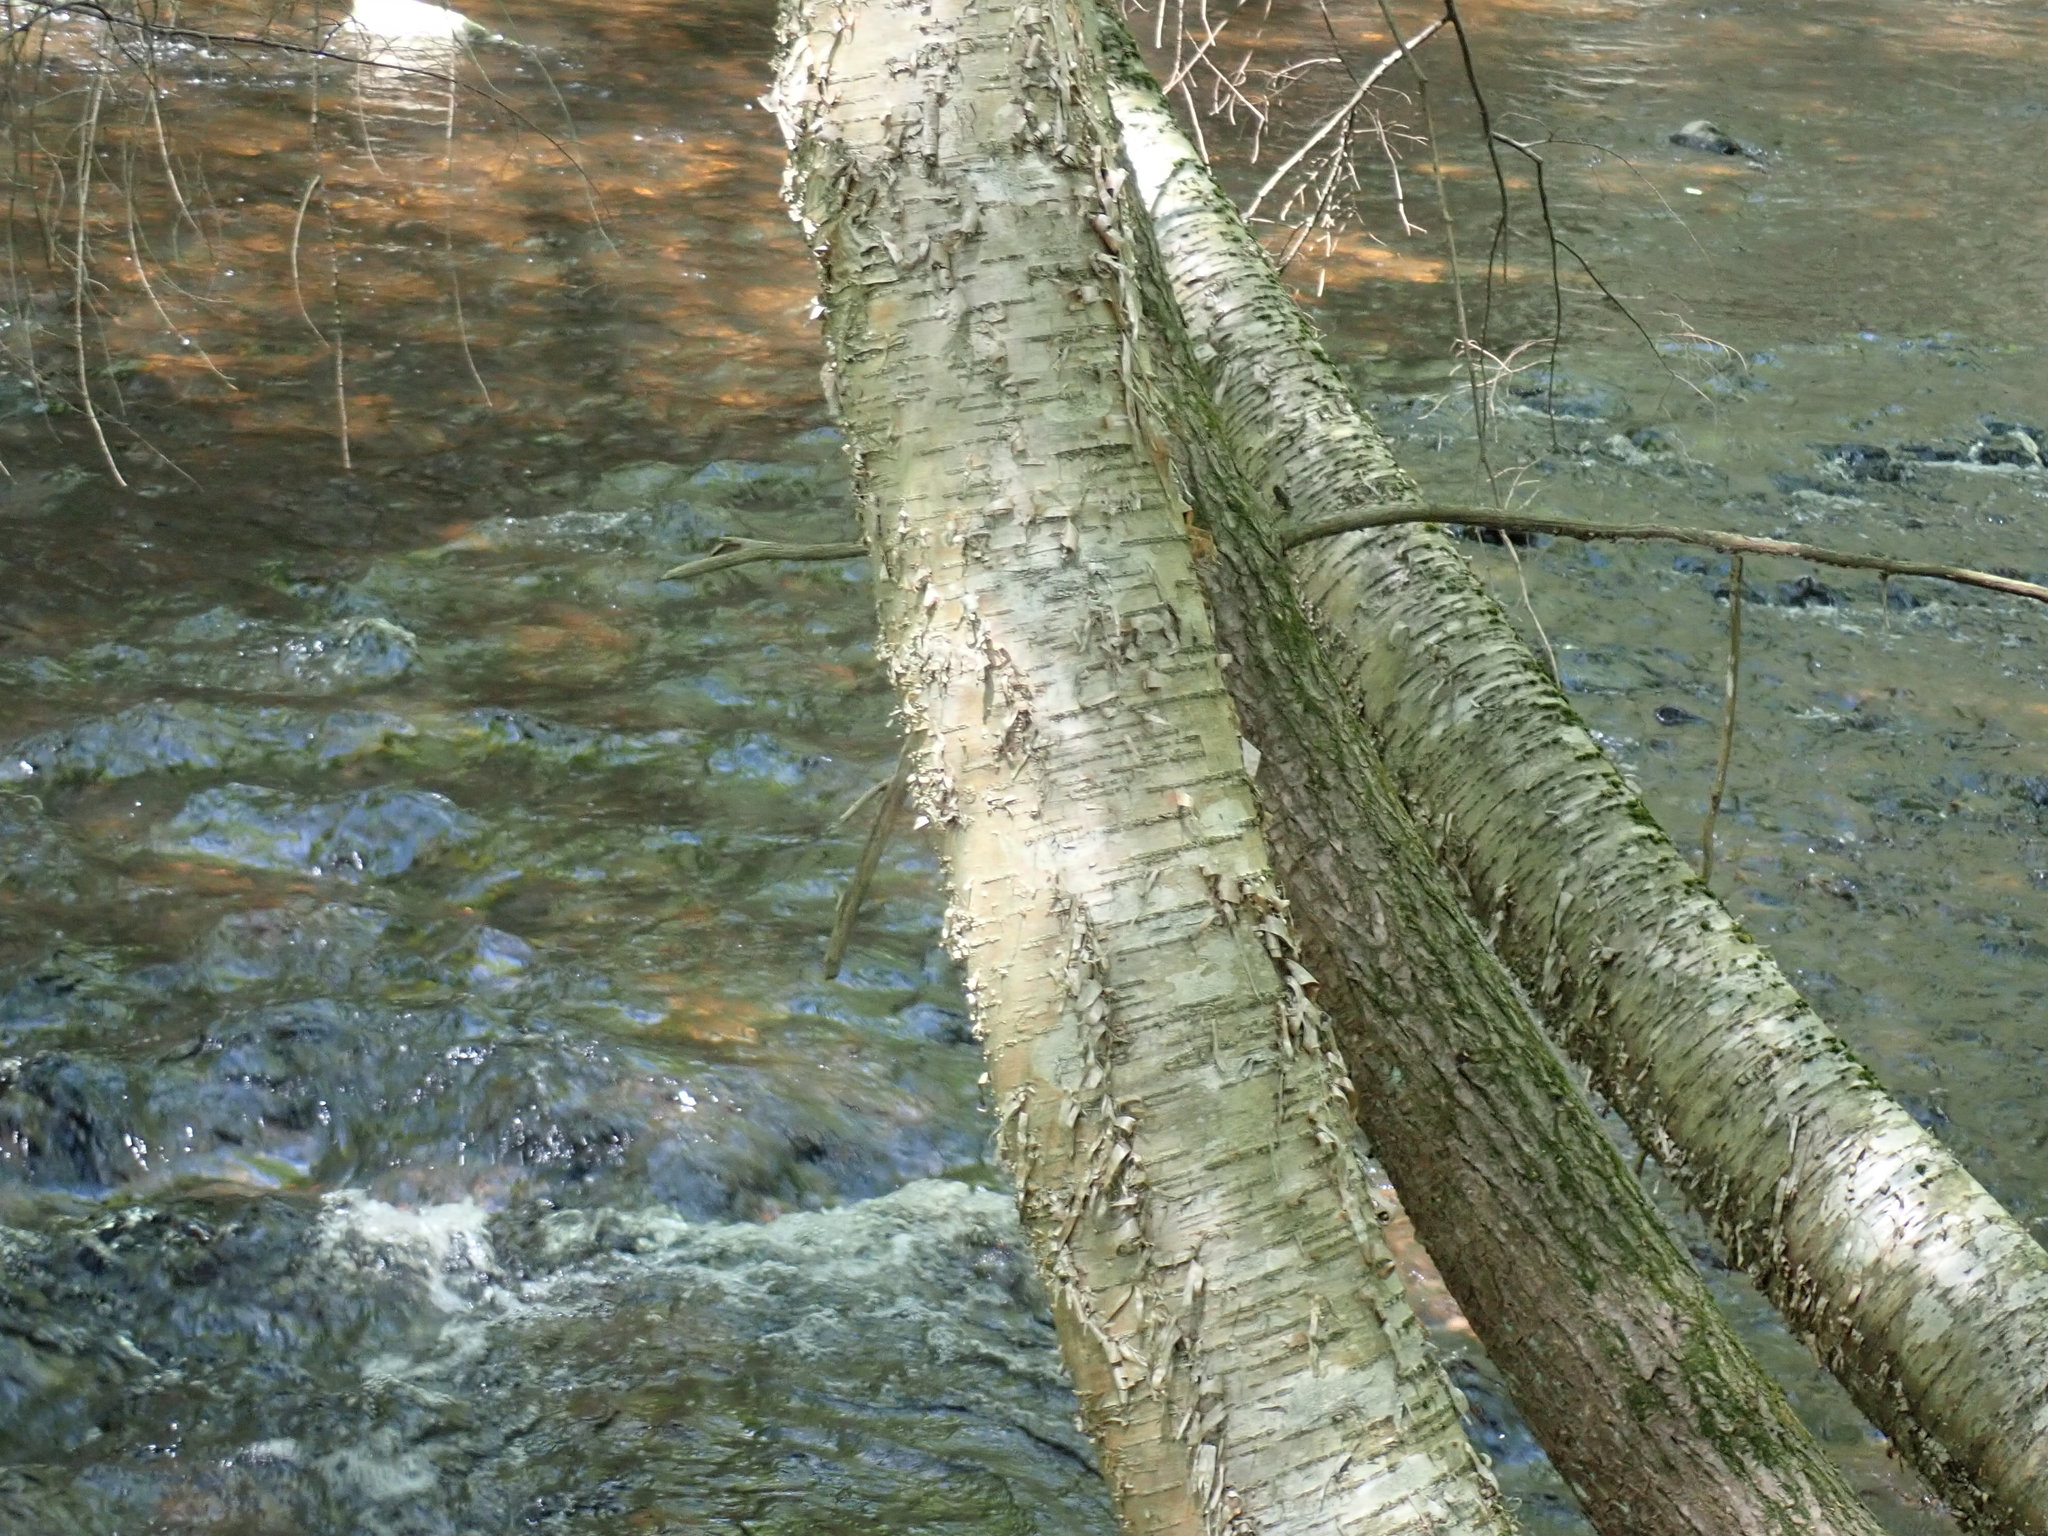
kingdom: Plantae
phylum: Tracheophyta
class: Magnoliopsida
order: Fagales
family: Betulaceae
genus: Betula
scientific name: Betula alleghaniensis
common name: Yellow birch
